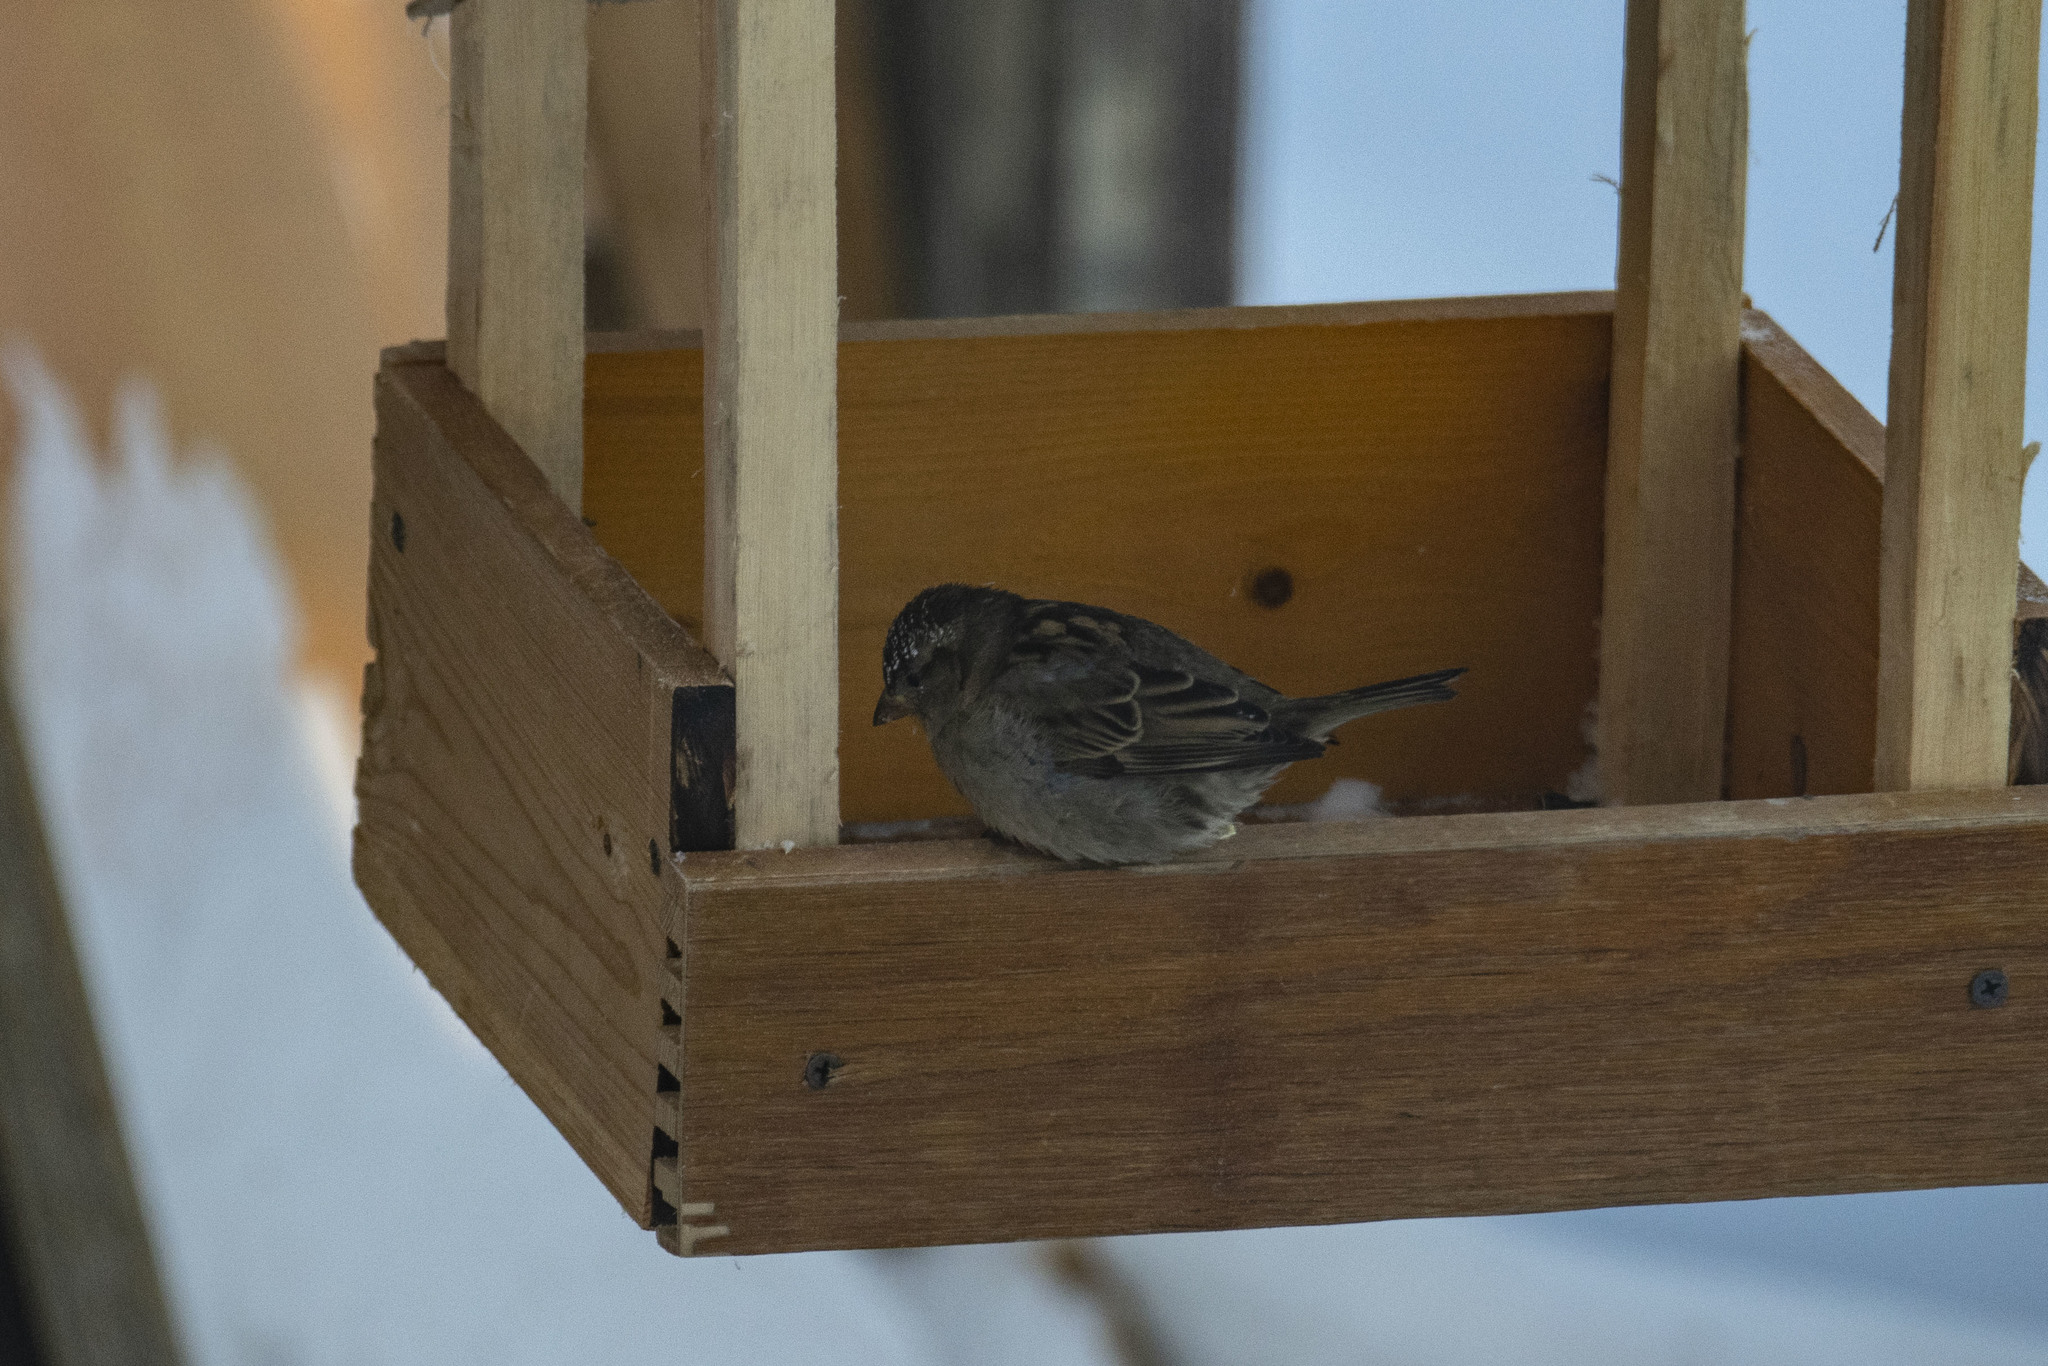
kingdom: Animalia
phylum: Chordata
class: Aves
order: Passeriformes
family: Passeridae
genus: Passer
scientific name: Passer domesticus
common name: House sparrow
